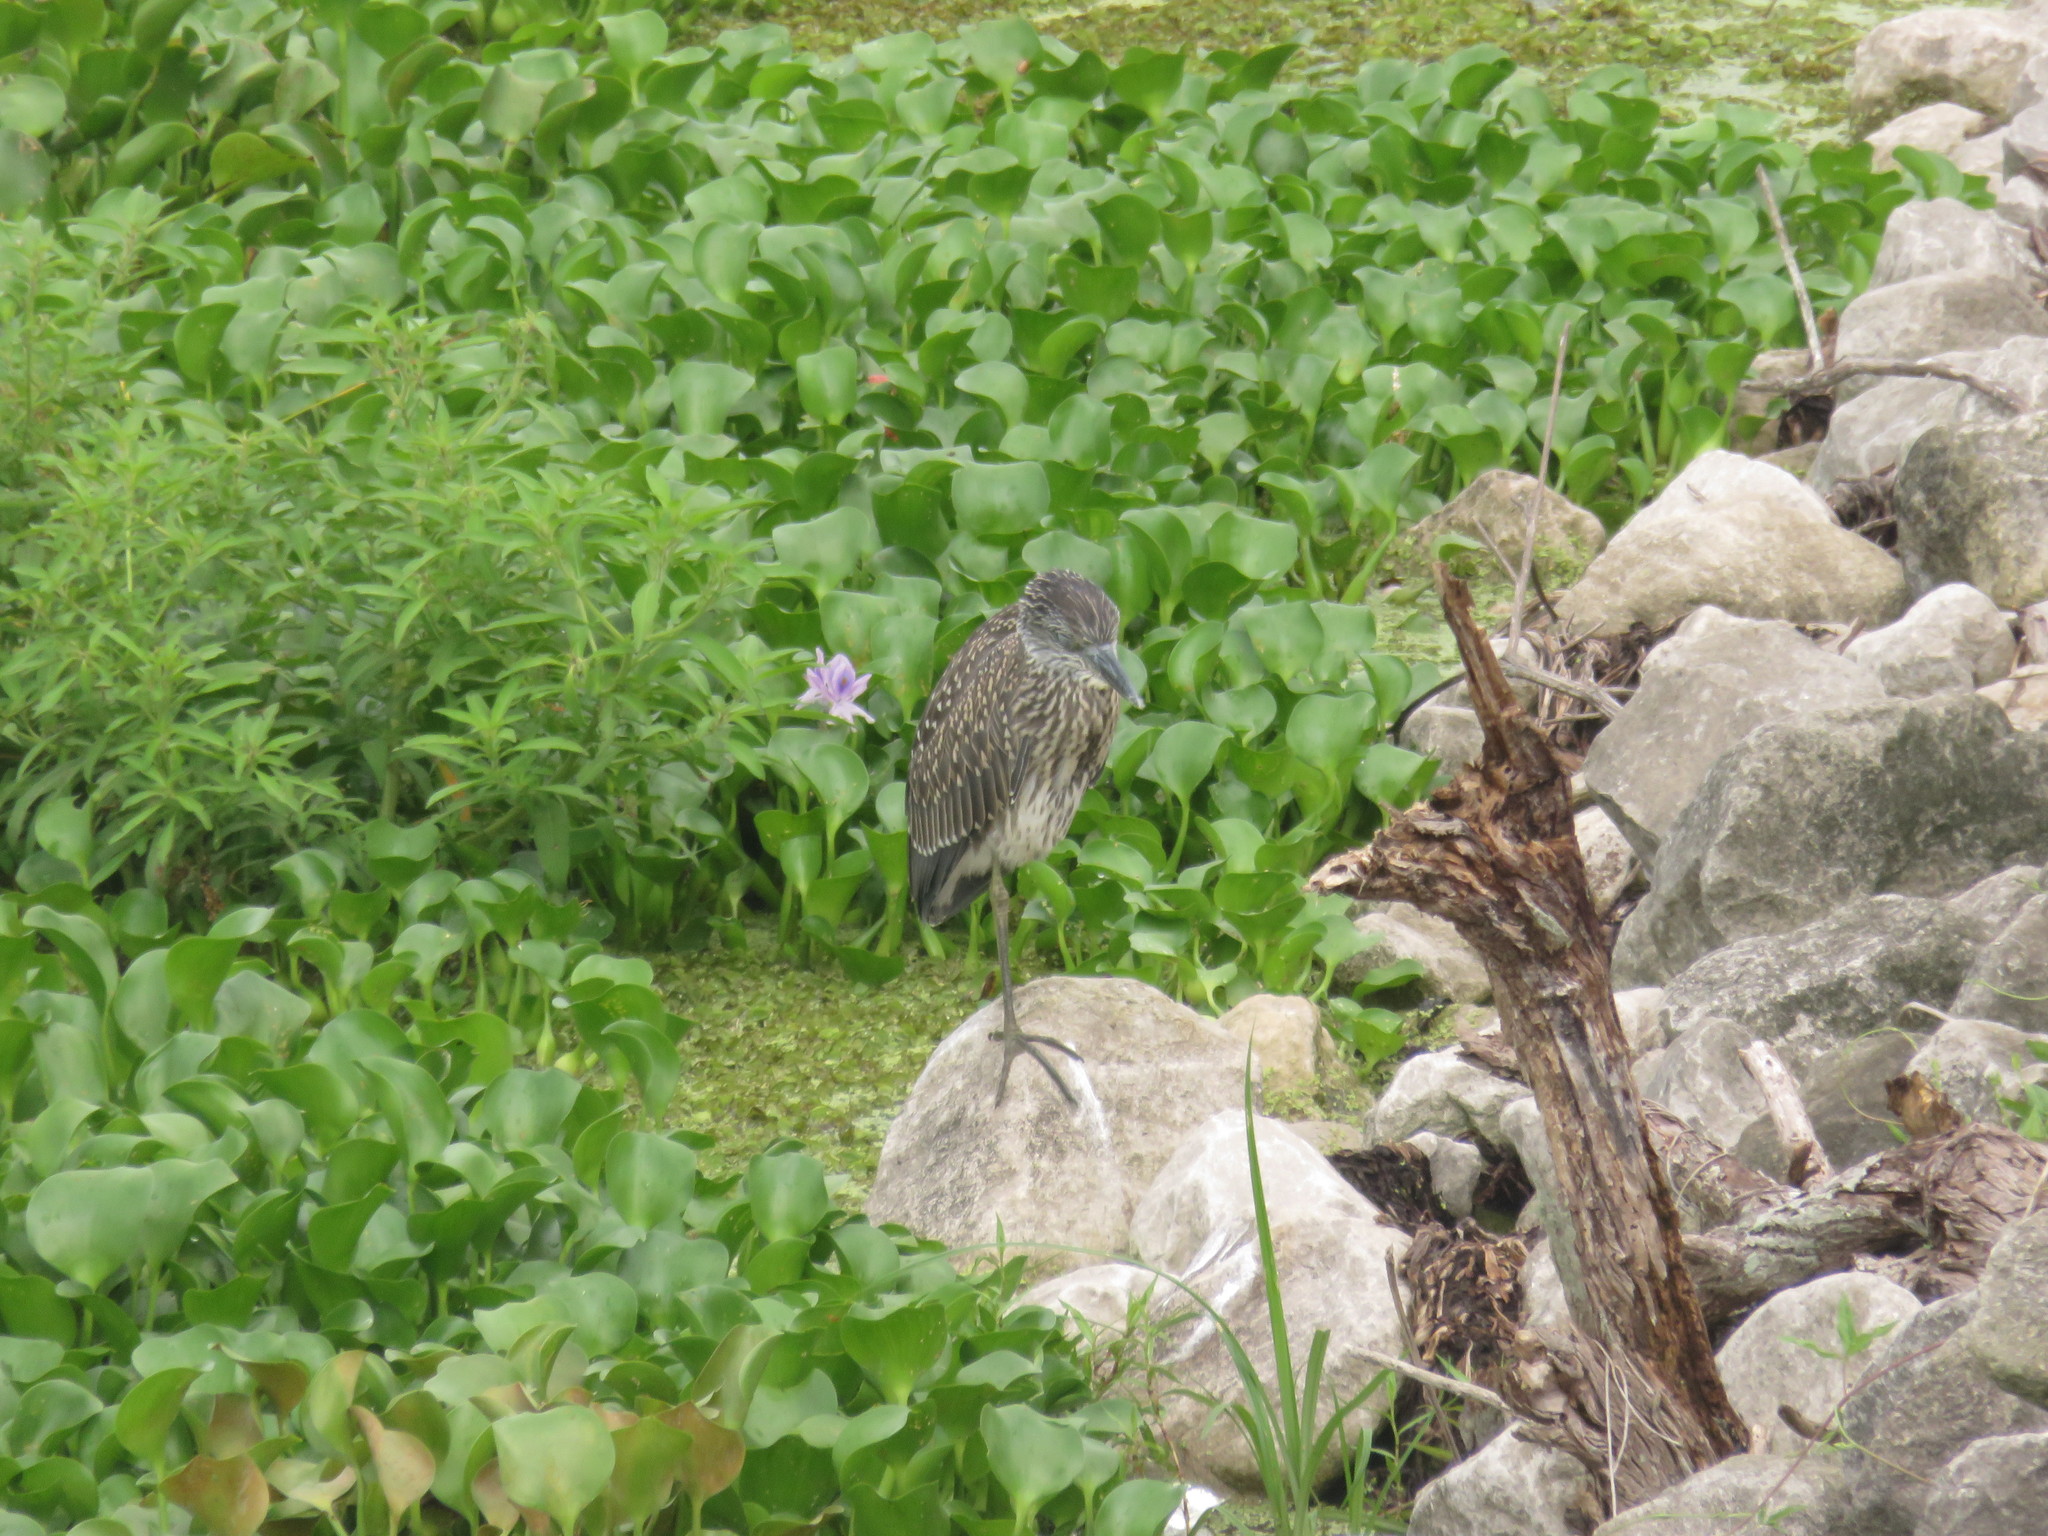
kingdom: Animalia
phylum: Chordata
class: Aves
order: Pelecaniformes
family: Ardeidae
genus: Nyctanassa
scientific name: Nyctanassa violacea
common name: Yellow-crowned night heron
